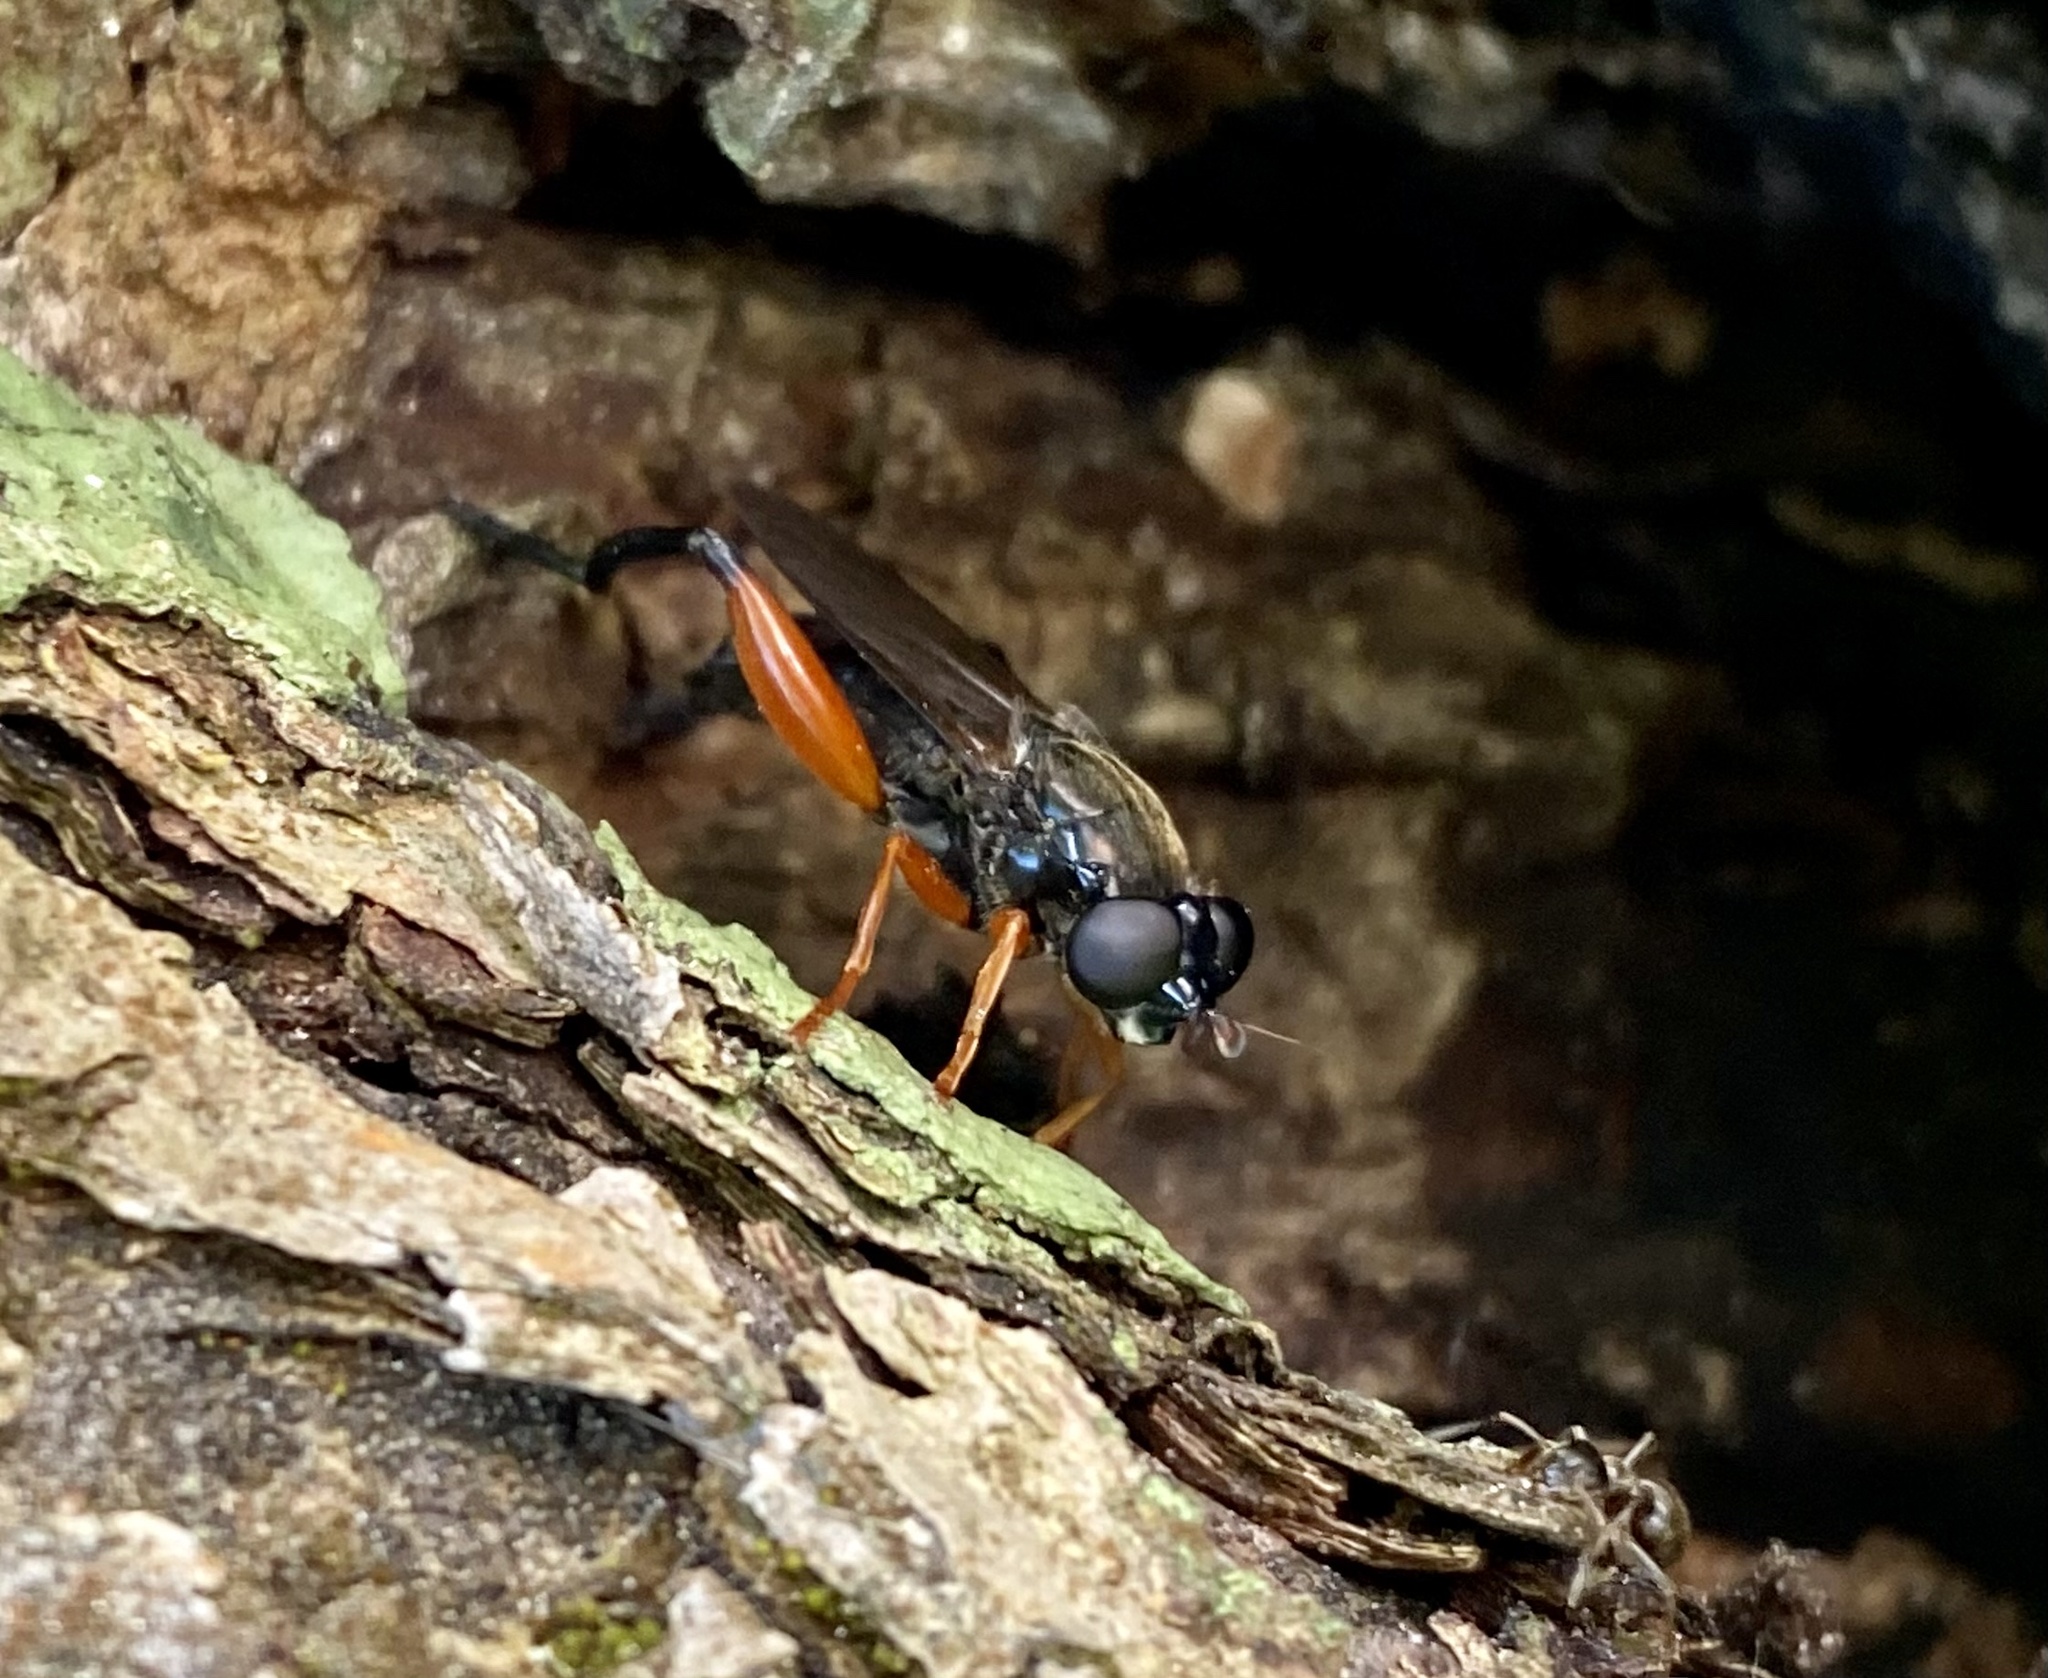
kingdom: Animalia
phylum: Arthropoda
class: Insecta
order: Diptera
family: Syrphidae
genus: Chalcosyrphus
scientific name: Chalcosyrphus valgus
